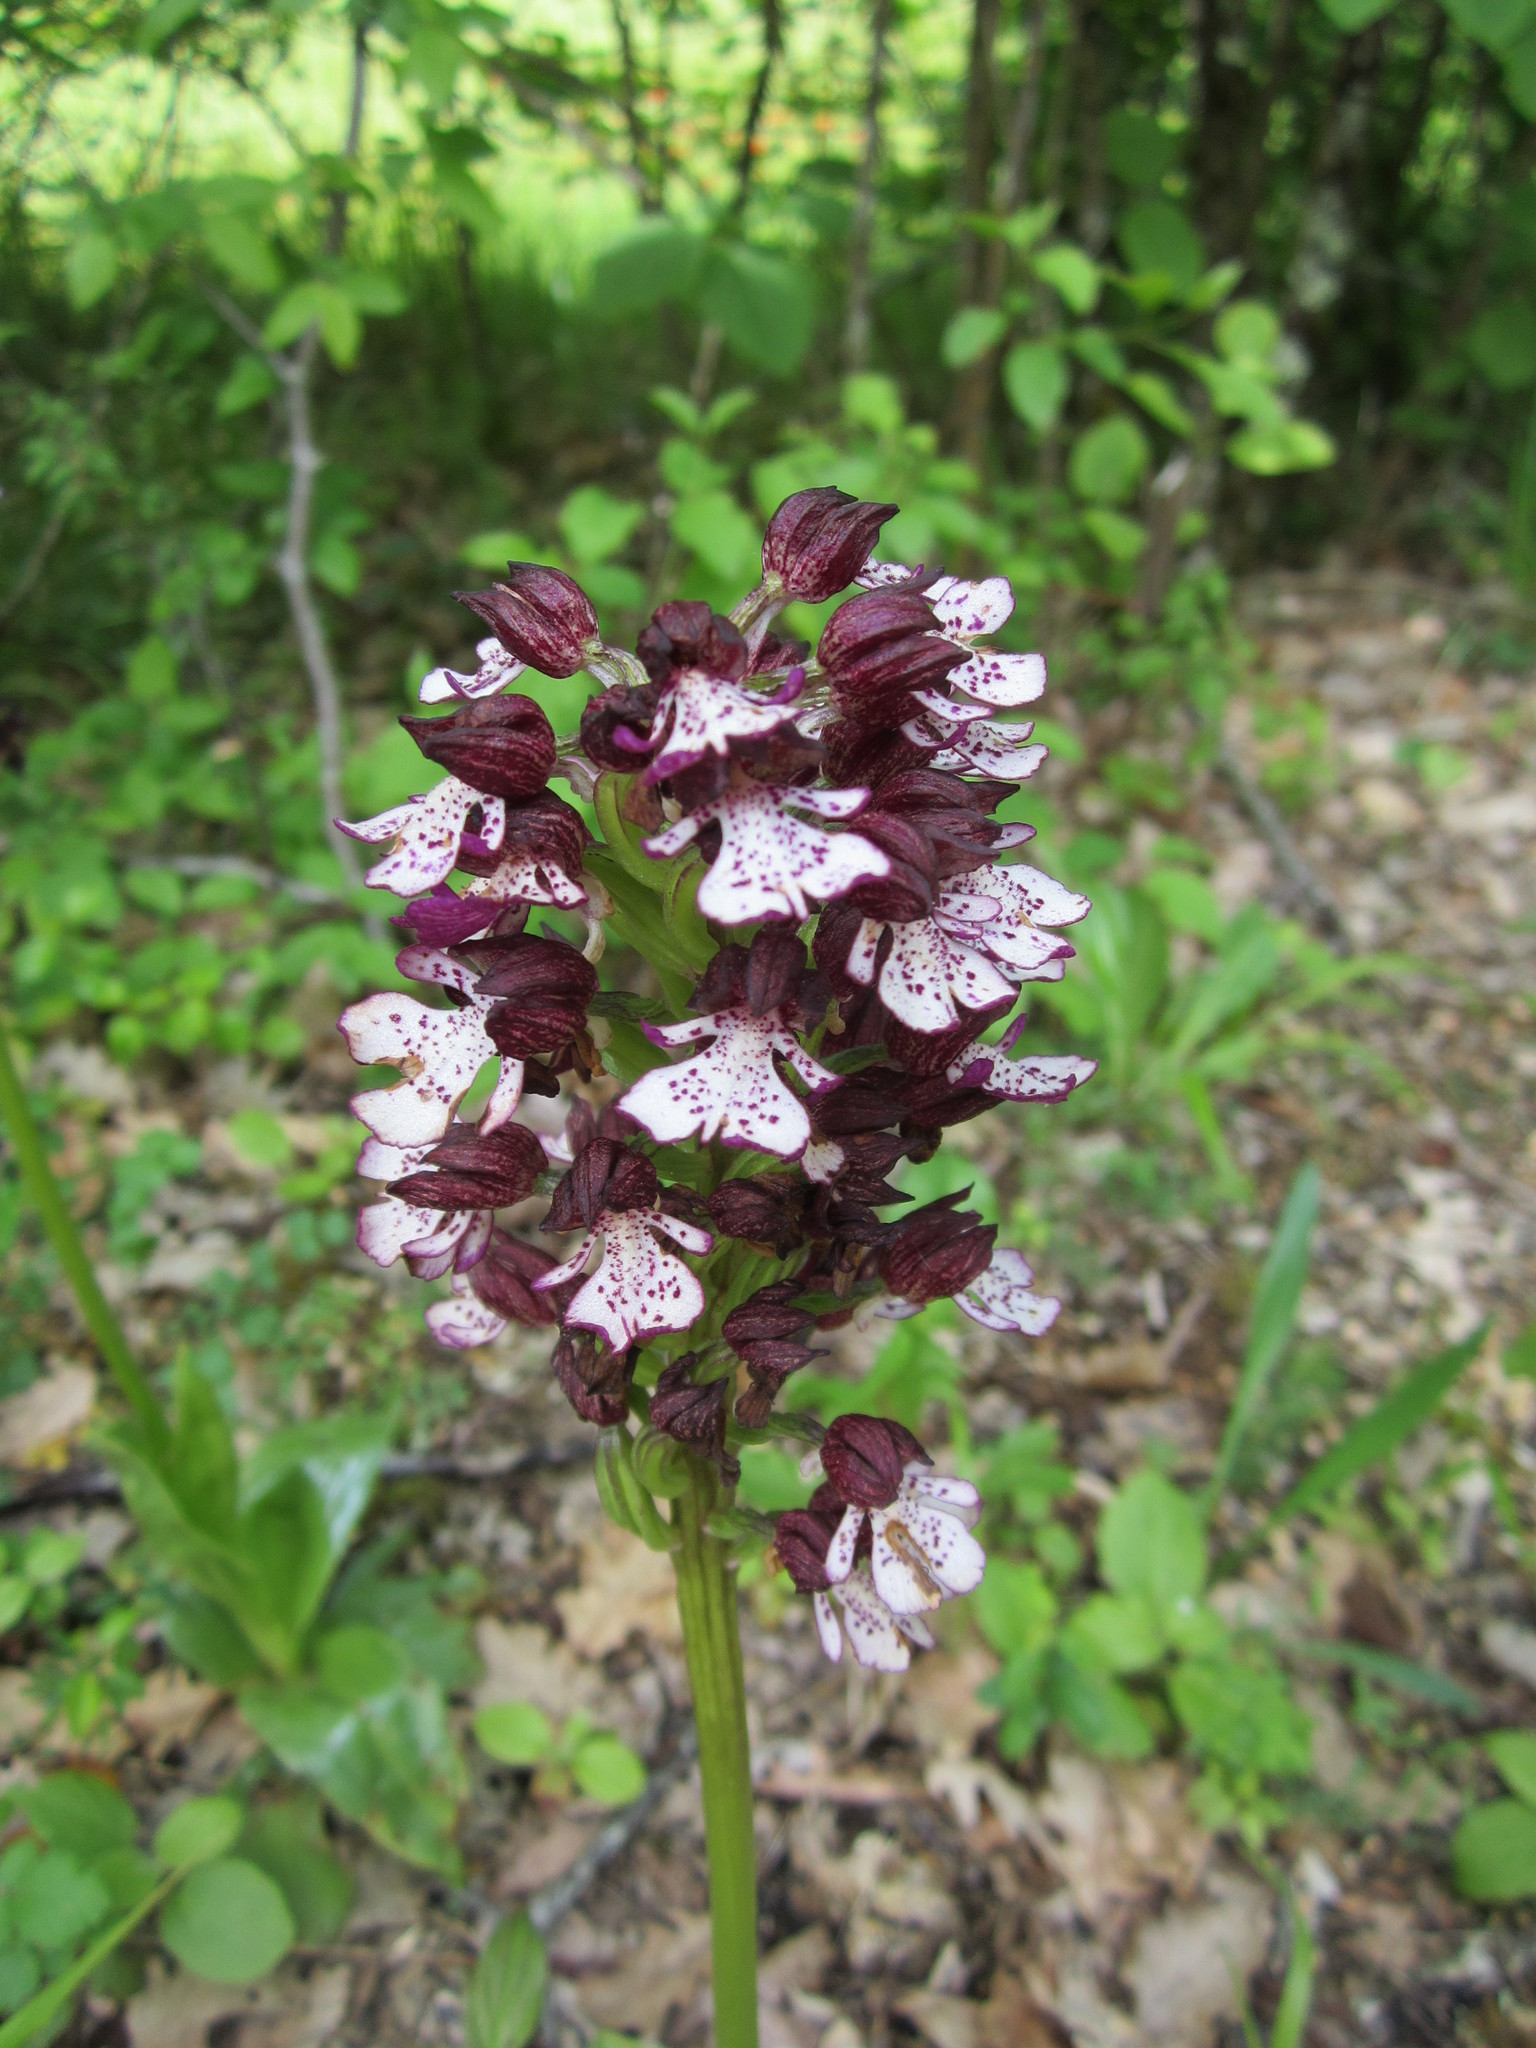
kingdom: Plantae
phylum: Tracheophyta
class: Liliopsida
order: Asparagales
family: Orchidaceae
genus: Orchis
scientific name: Orchis purpurea
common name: Lady orchid
